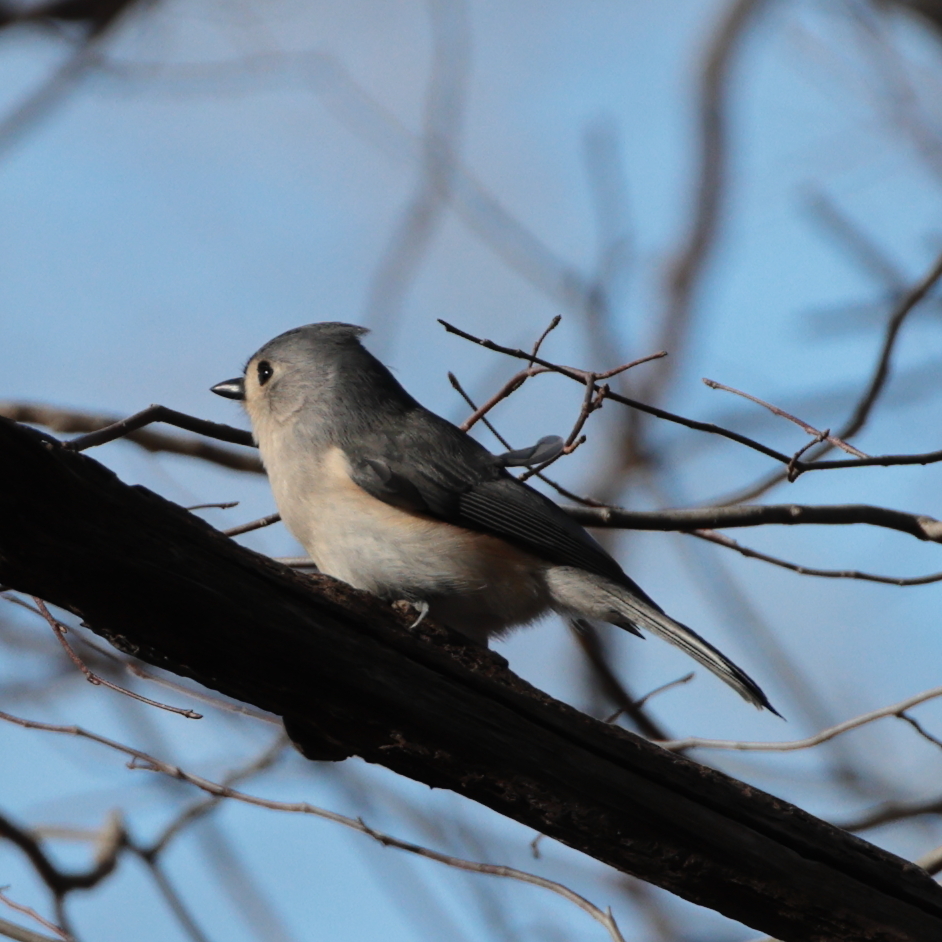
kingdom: Animalia
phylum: Chordata
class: Aves
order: Passeriformes
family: Paridae
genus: Baeolophus
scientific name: Baeolophus bicolor
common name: Tufted titmouse
